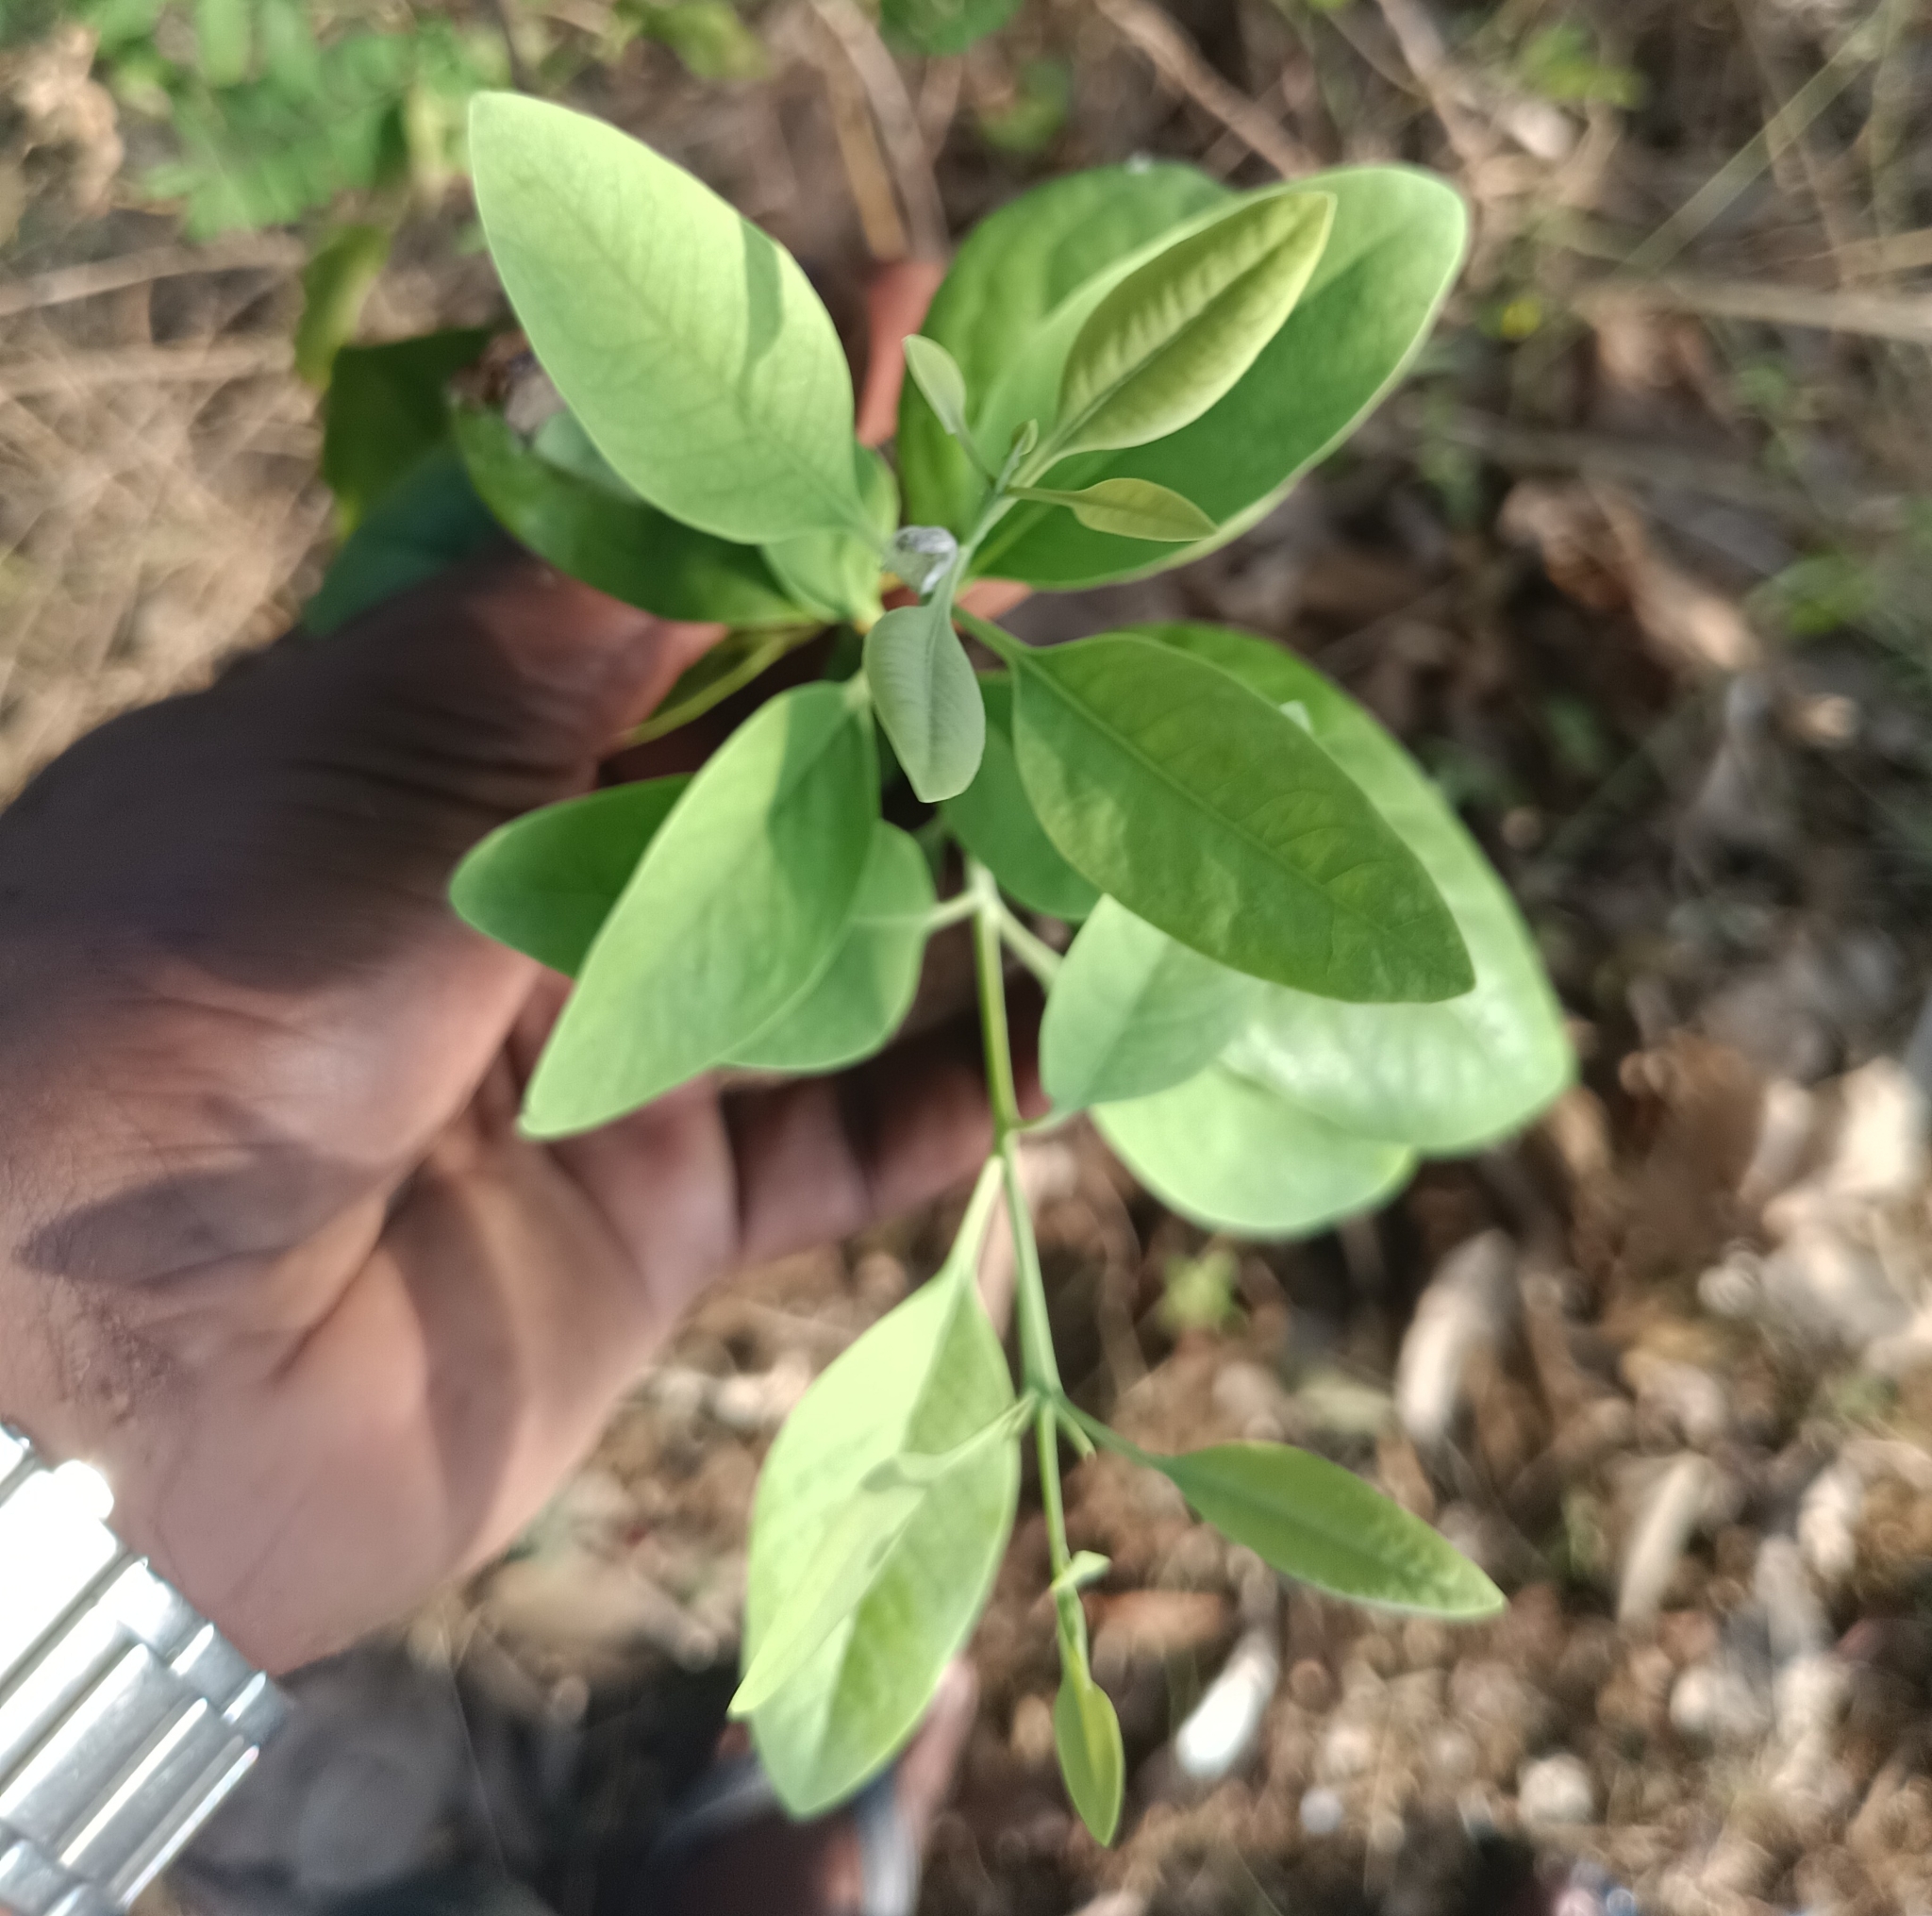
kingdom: Plantae
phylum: Tracheophyta
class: Magnoliopsida
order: Santalales
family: Santalaceae
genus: Santalum
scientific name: Santalum album
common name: Indian sandalwood
